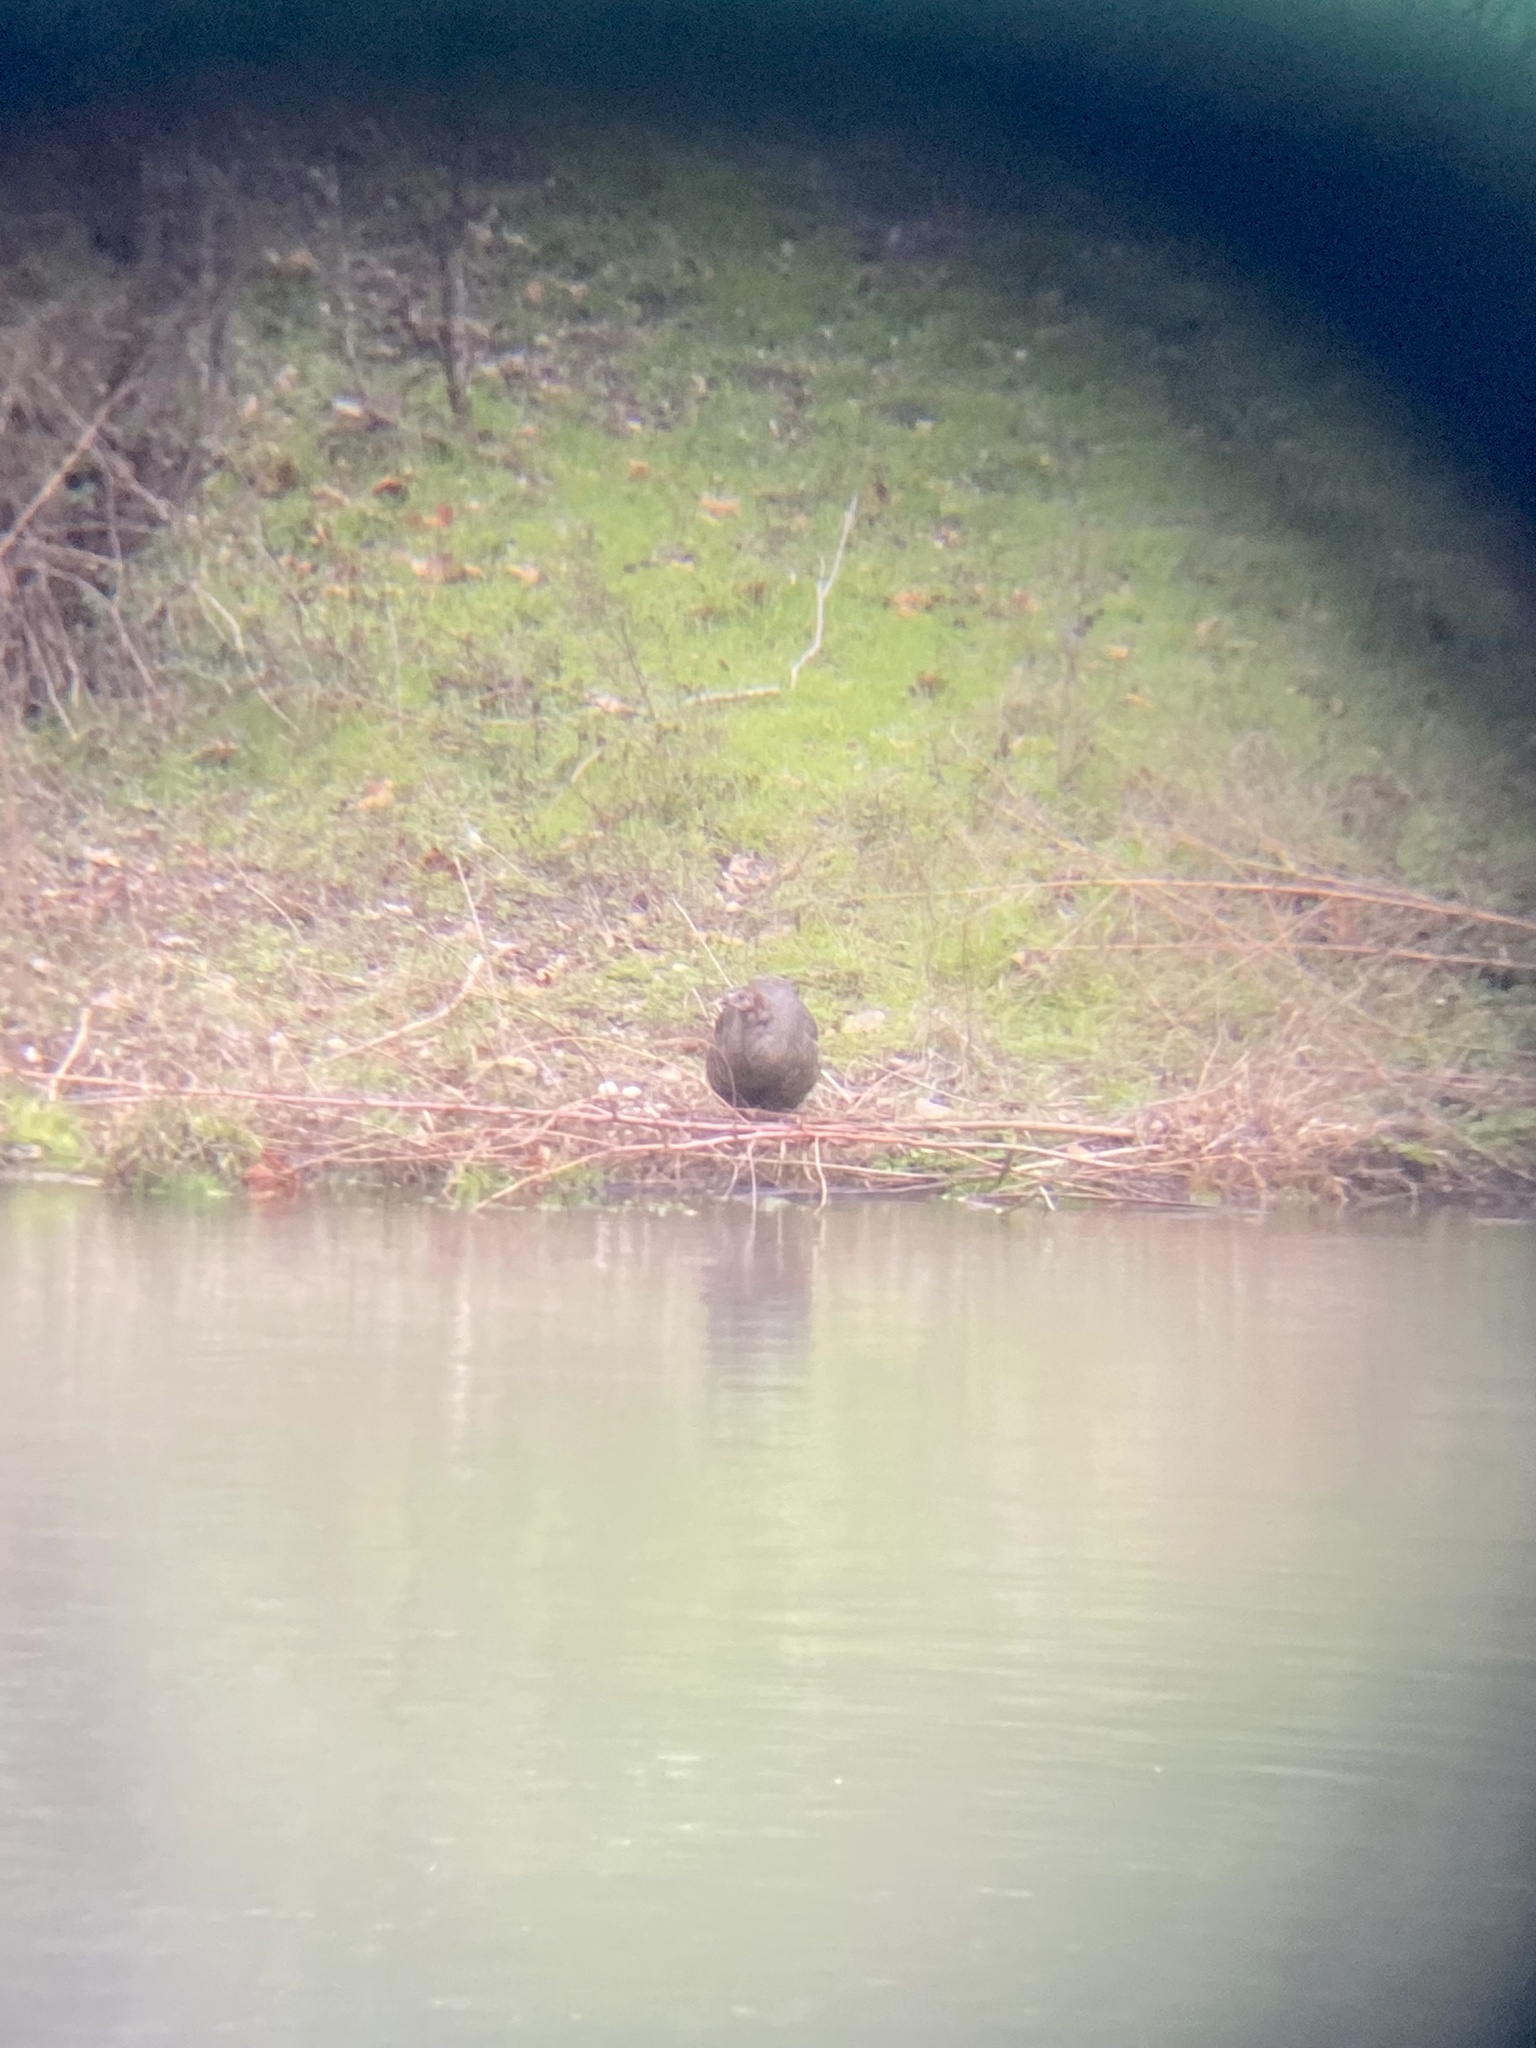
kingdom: Animalia
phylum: Chordata
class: Aves
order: Galliformes
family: Phasianidae
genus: Meleagris
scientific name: Meleagris gallopavo
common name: Wild turkey
